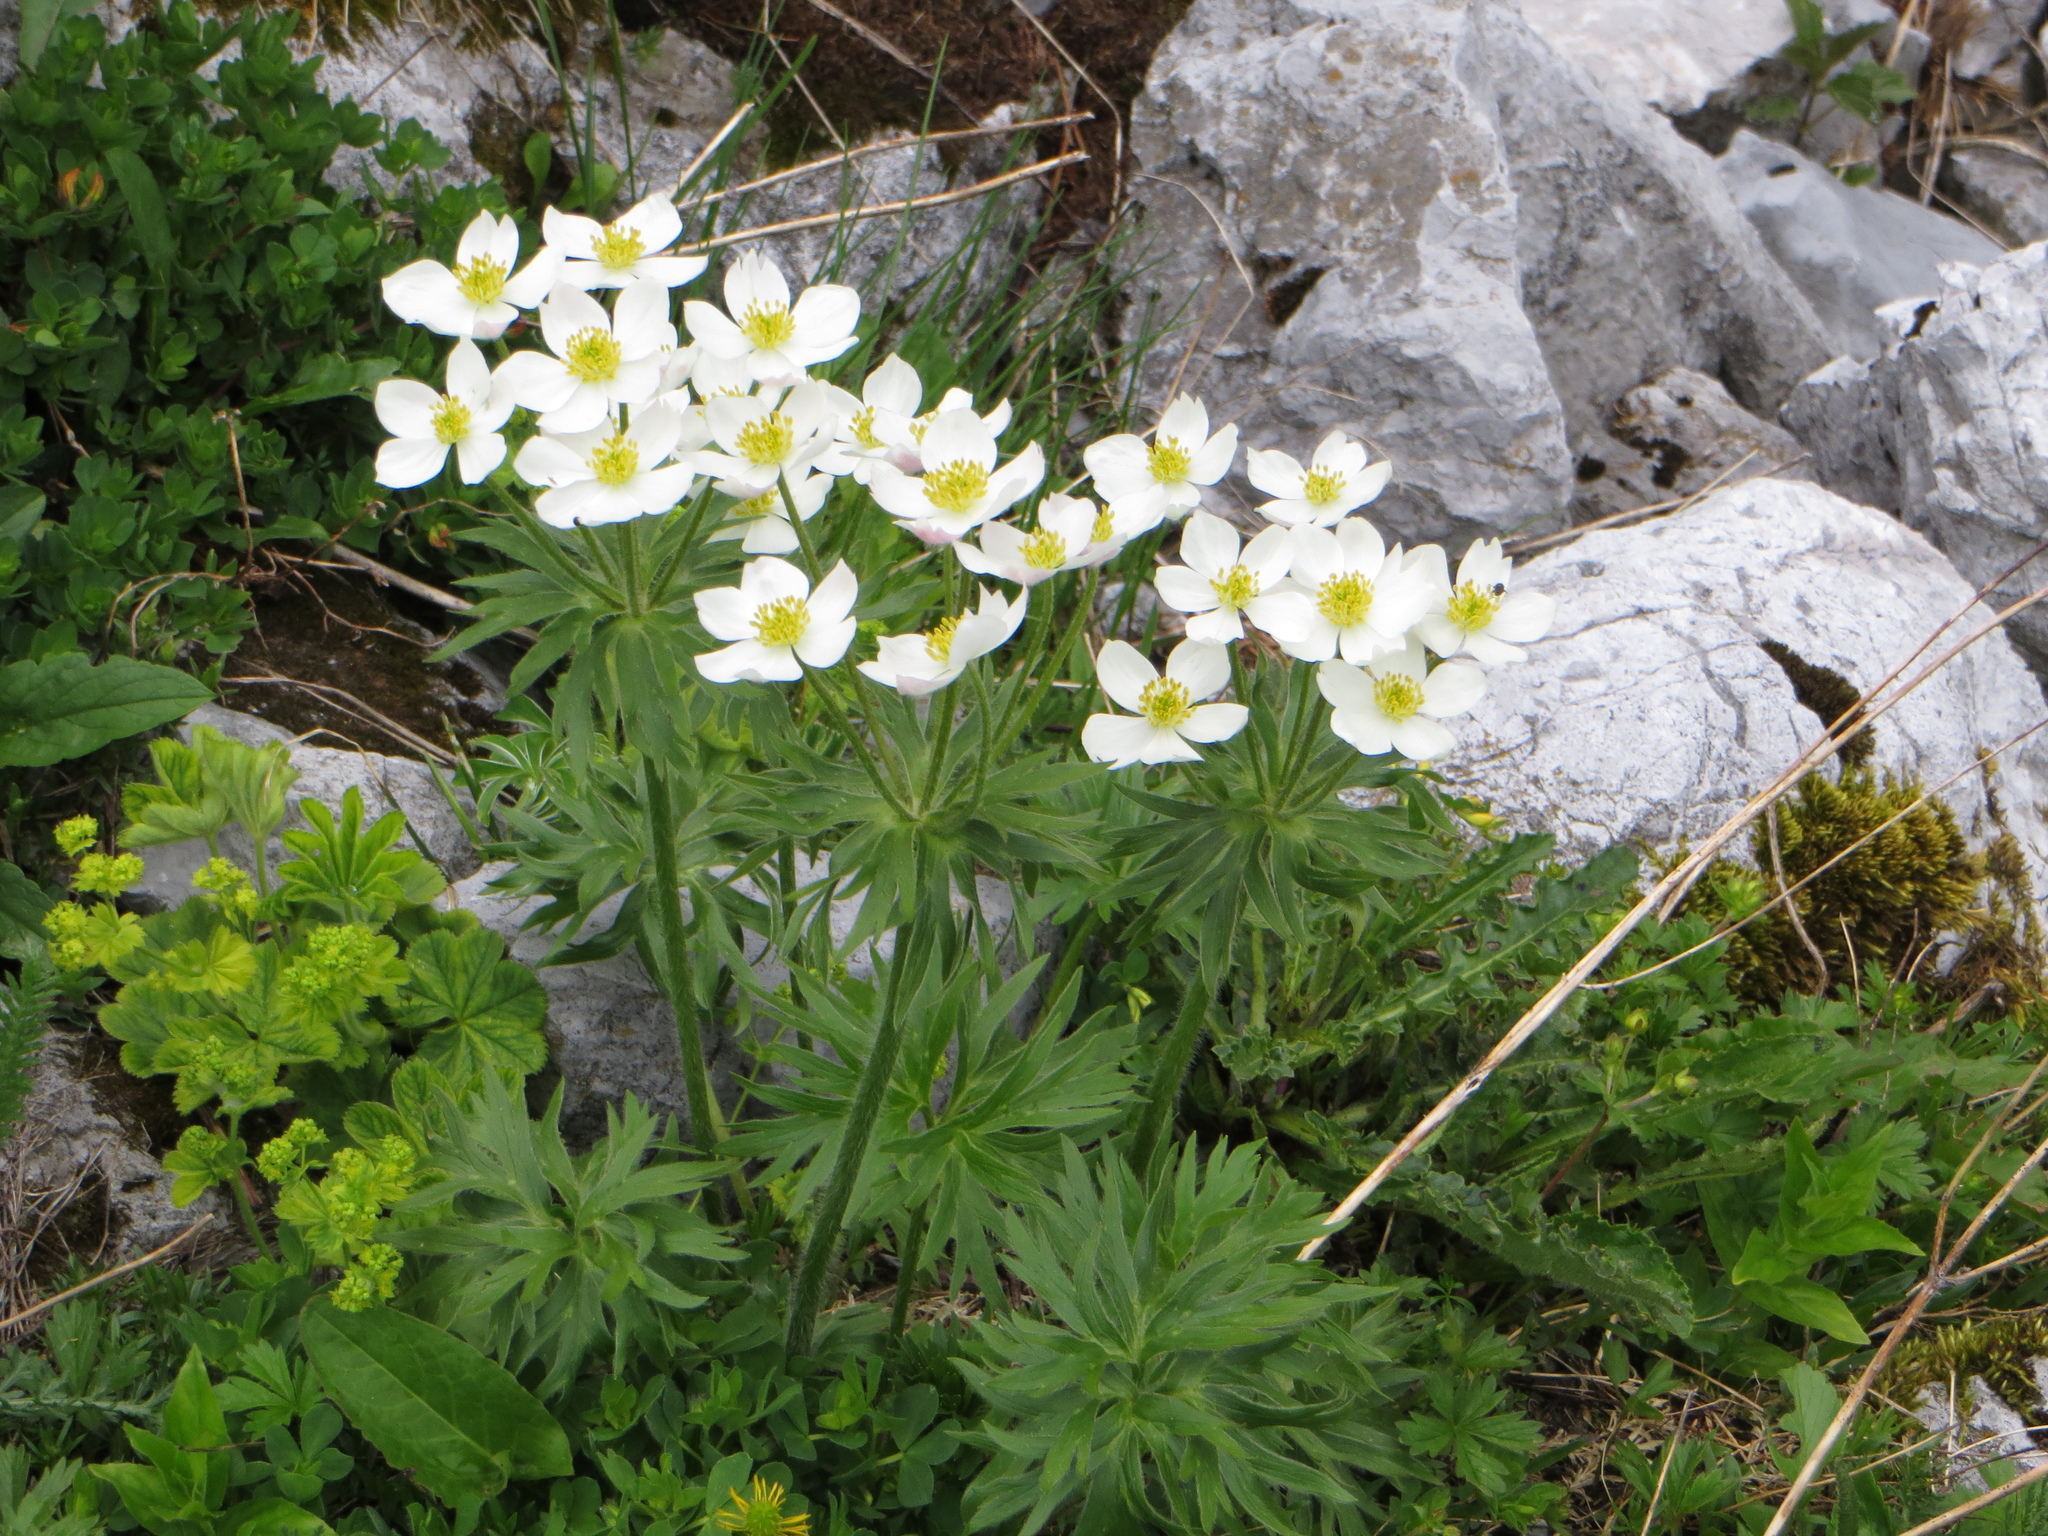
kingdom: Plantae
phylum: Tracheophyta
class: Magnoliopsida
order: Ranunculales
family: Ranunculaceae
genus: Anemonastrum
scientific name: Anemonastrum narcissiflorum
